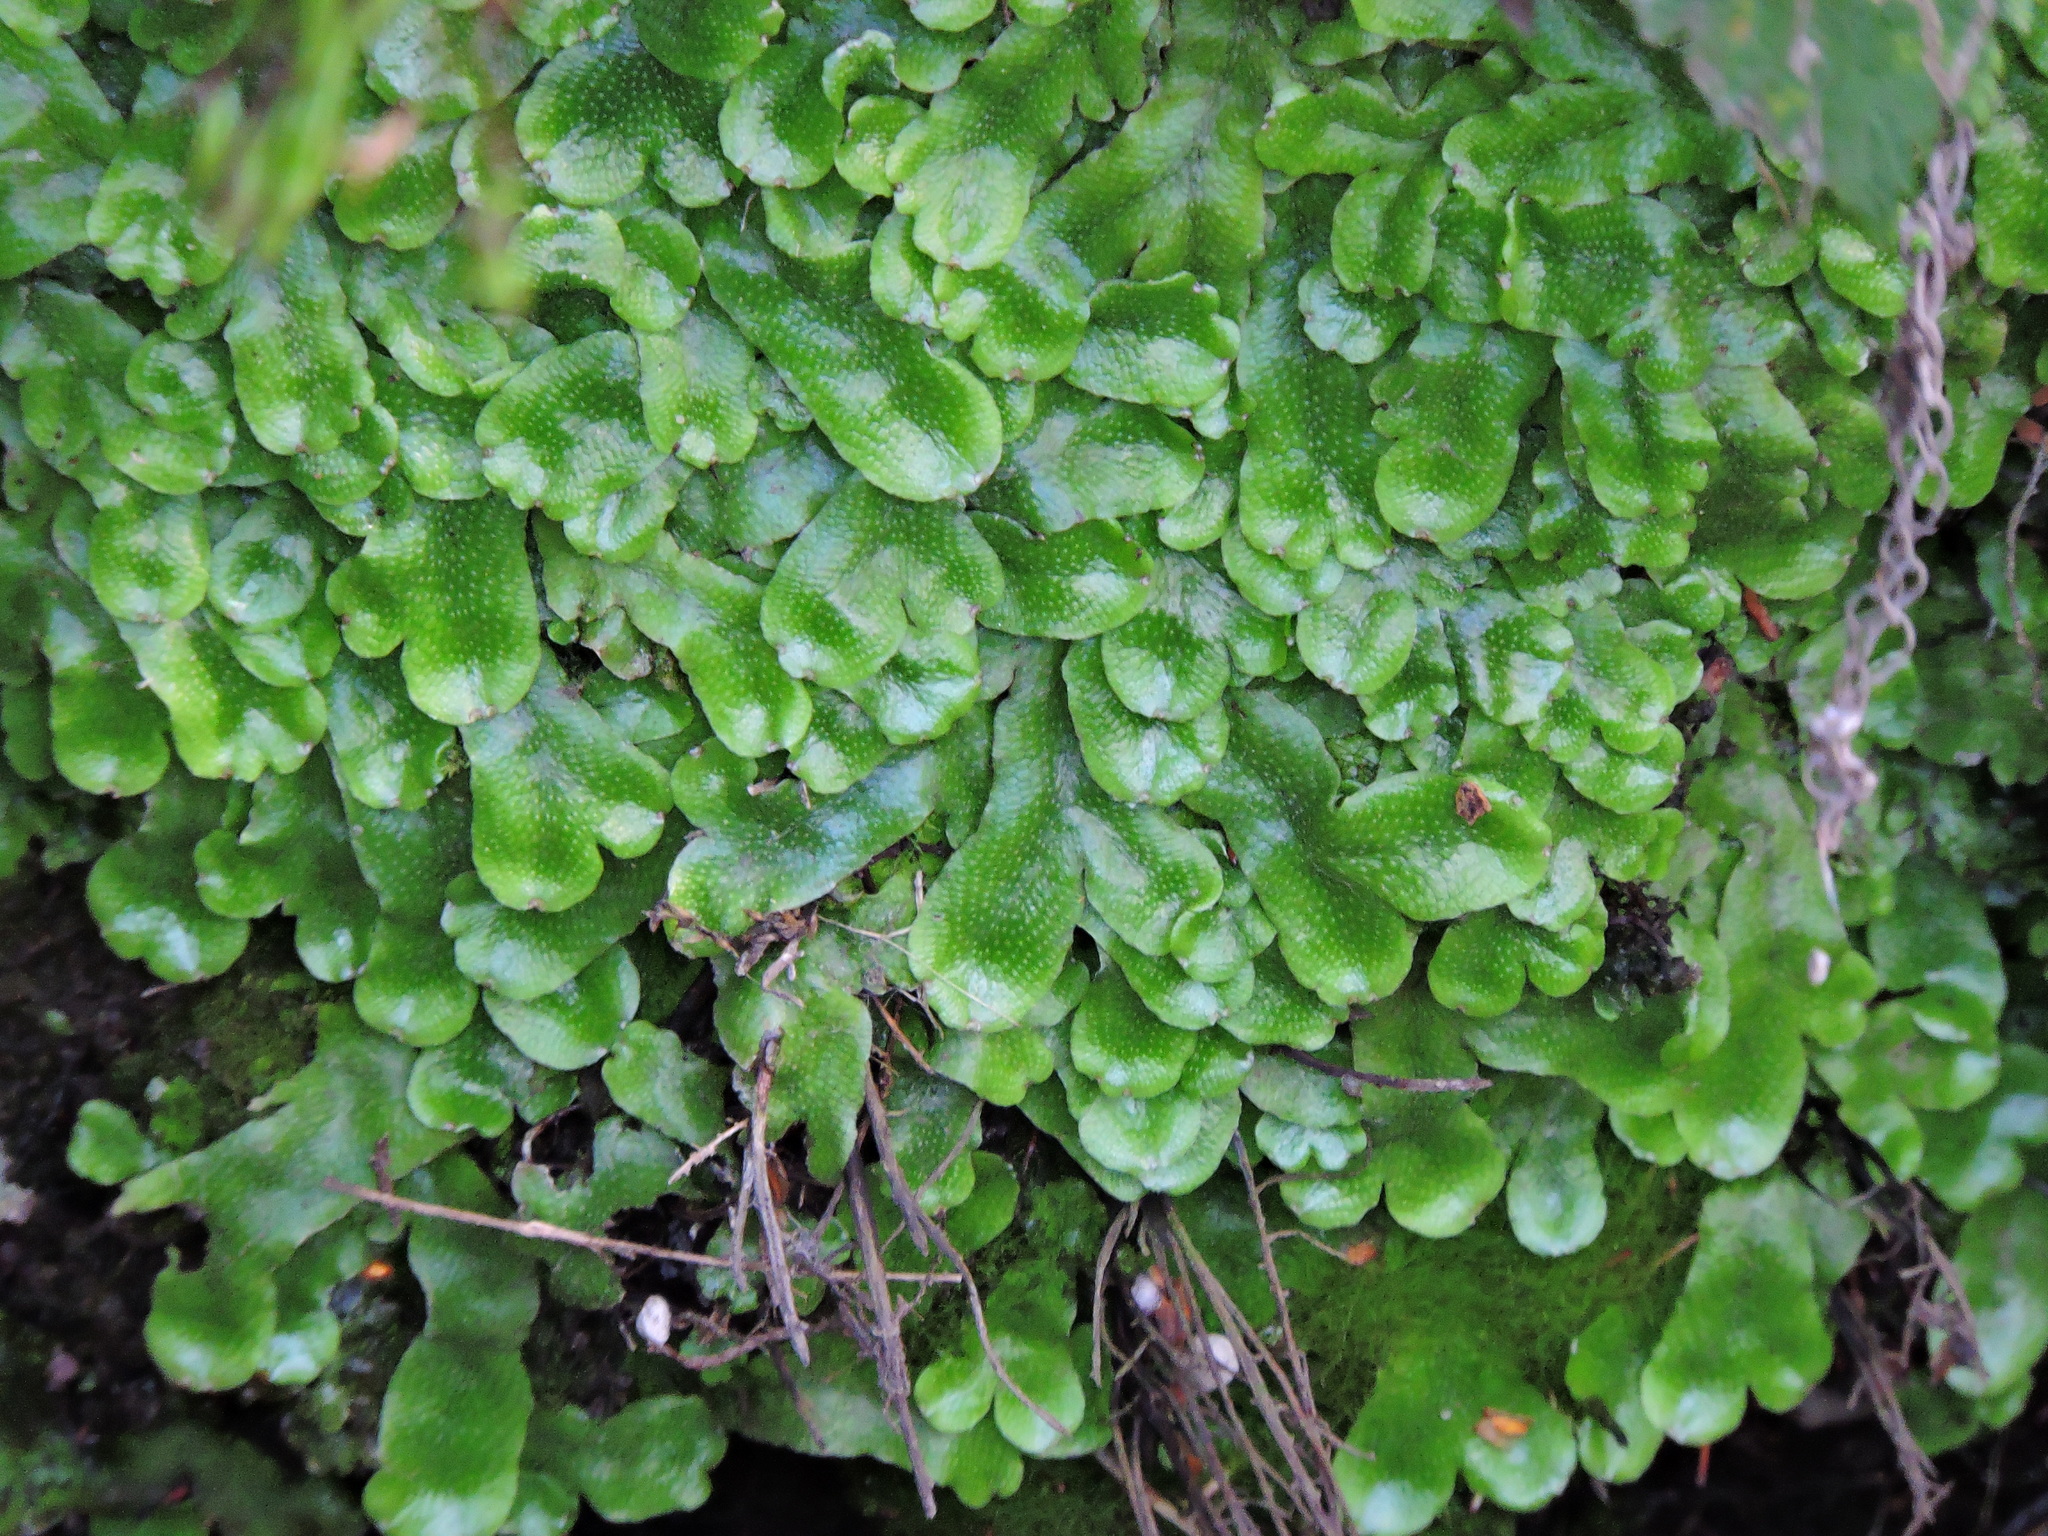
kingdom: Plantae
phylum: Marchantiophyta
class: Marchantiopsida
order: Marchantiales
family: Conocephalaceae
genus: Conocephalum
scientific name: Conocephalum conicum
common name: Great scented liverwort
